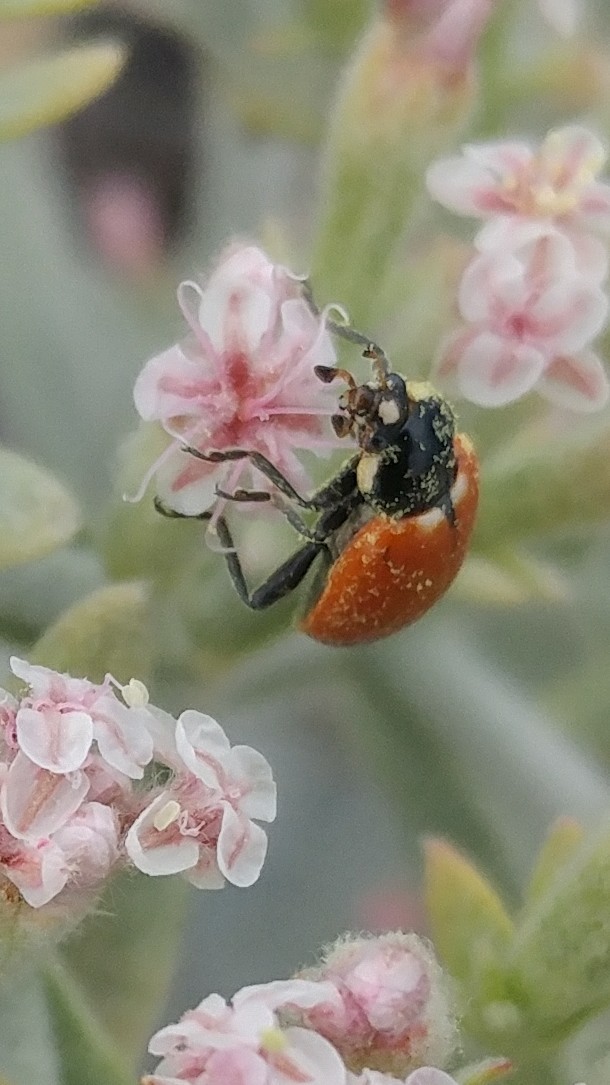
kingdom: Animalia
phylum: Arthropoda
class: Insecta
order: Coleoptera
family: Coccinellidae
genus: Hippodamia
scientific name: Hippodamia quinquesignata
